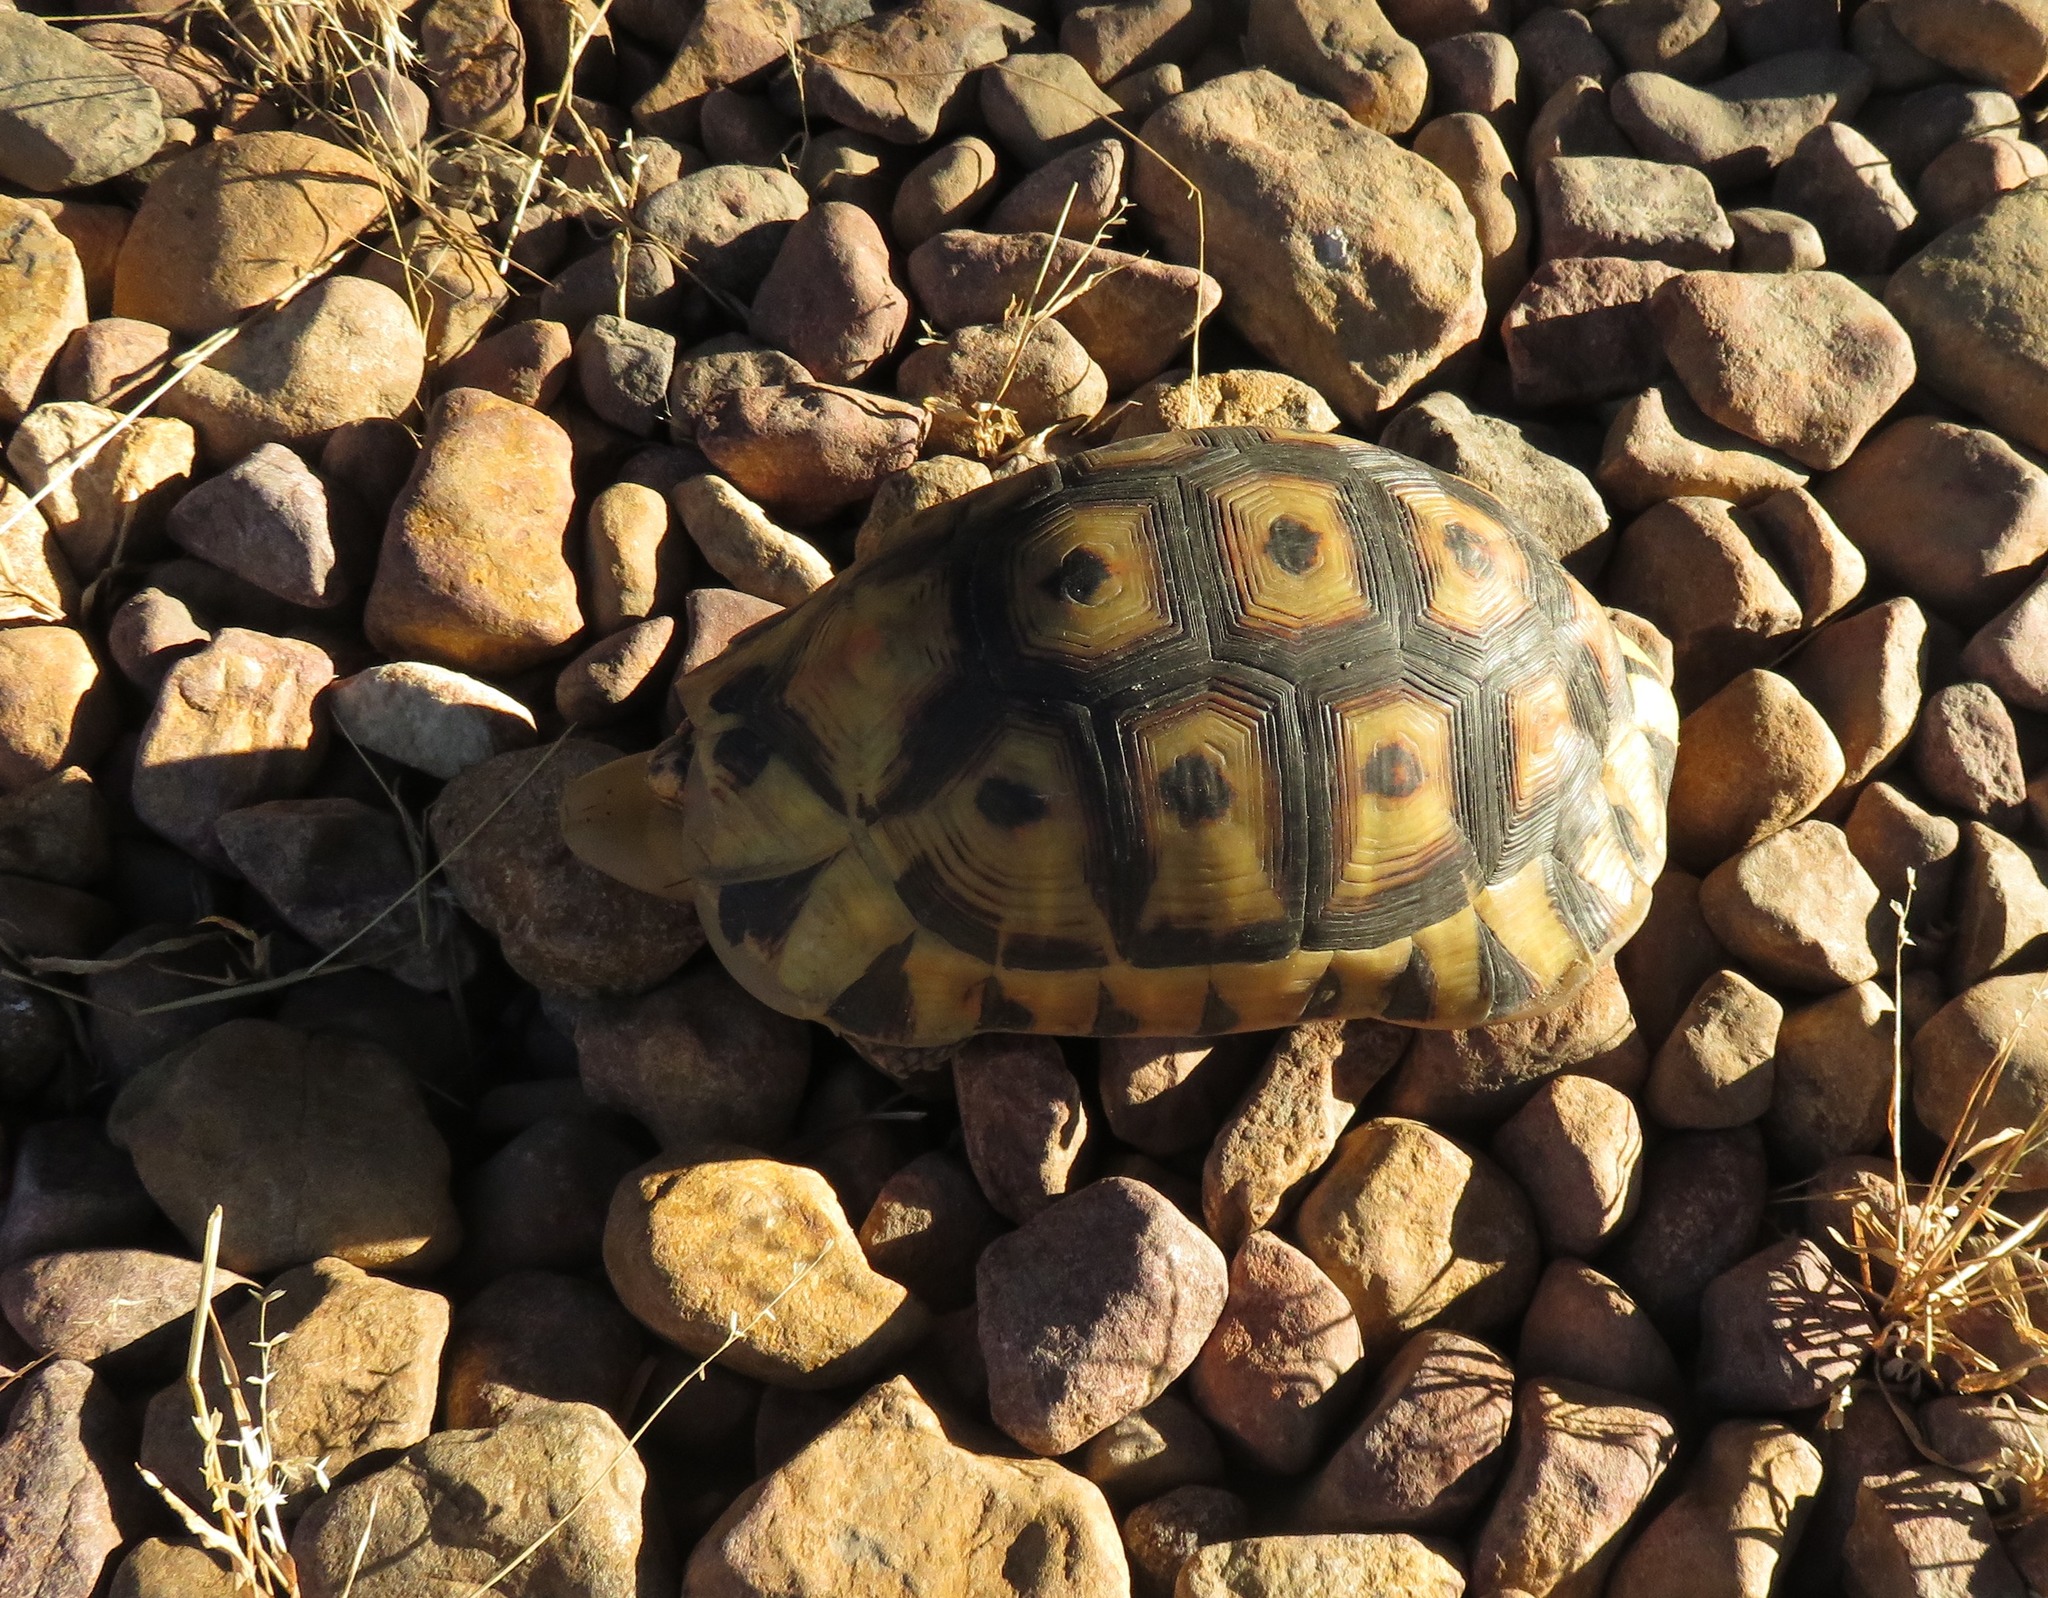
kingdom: Animalia
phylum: Chordata
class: Testudines
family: Testudinidae
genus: Chersina
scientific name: Chersina angulata
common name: South african bowsprit tortoise
